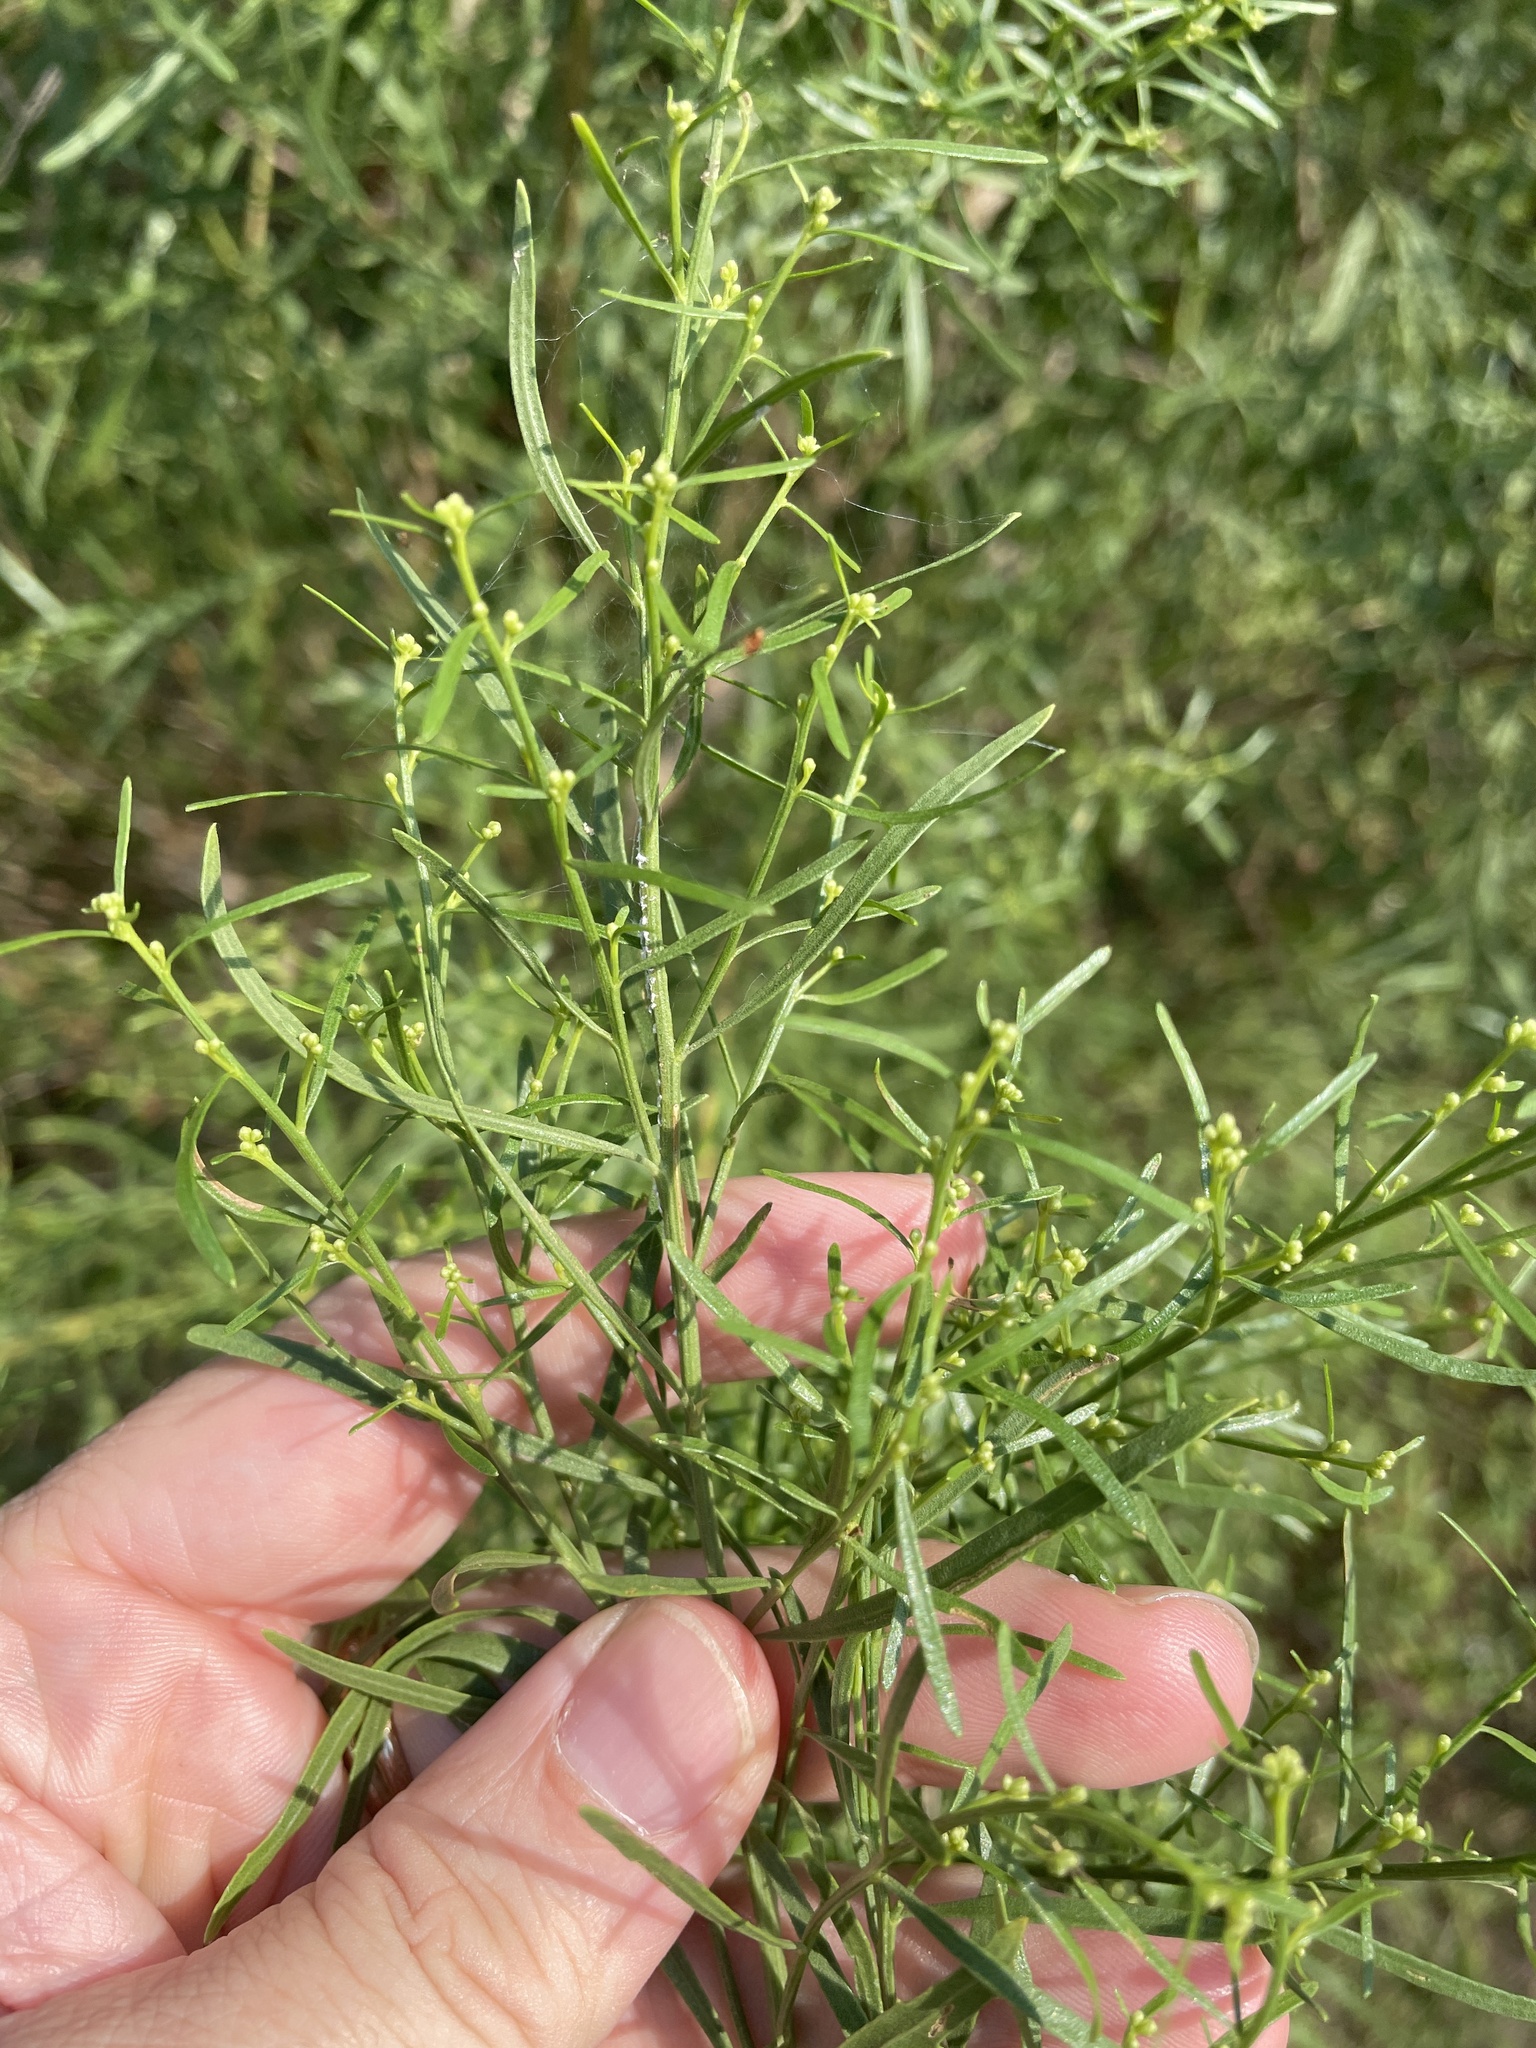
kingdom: Plantae
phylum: Tracheophyta
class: Magnoliopsida
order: Asterales
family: Asteraceae
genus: Baccharis
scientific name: Baccharis neglecta
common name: Roosevelt-weed
